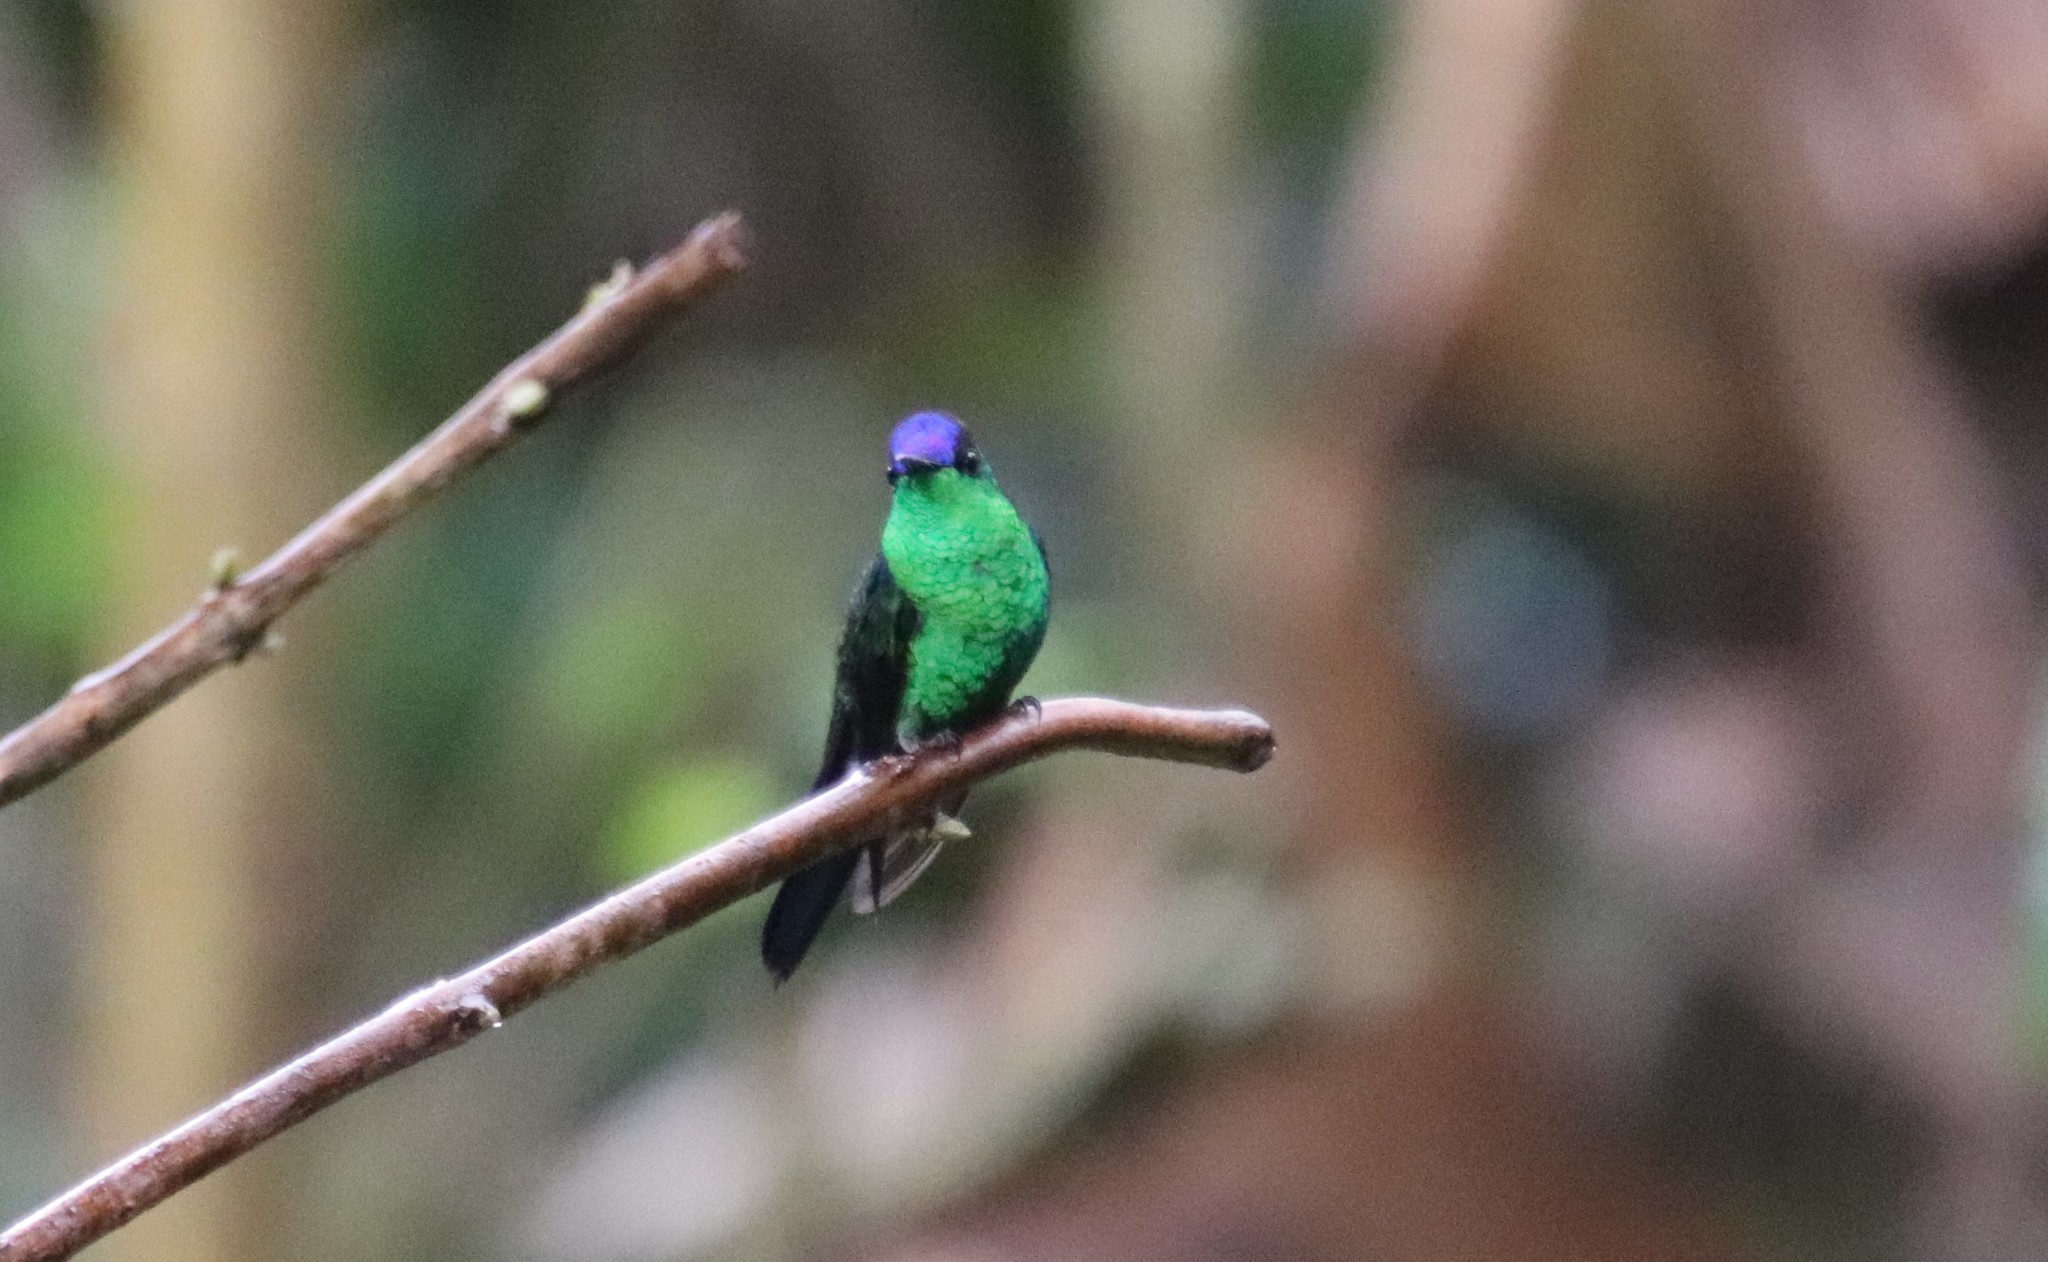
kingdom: Animalia
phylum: Chordata
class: Aves
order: Apodiformes
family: Trochilidae
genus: Thalurania
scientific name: Thalurania glaucopis
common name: Violet-capped woodnymph
